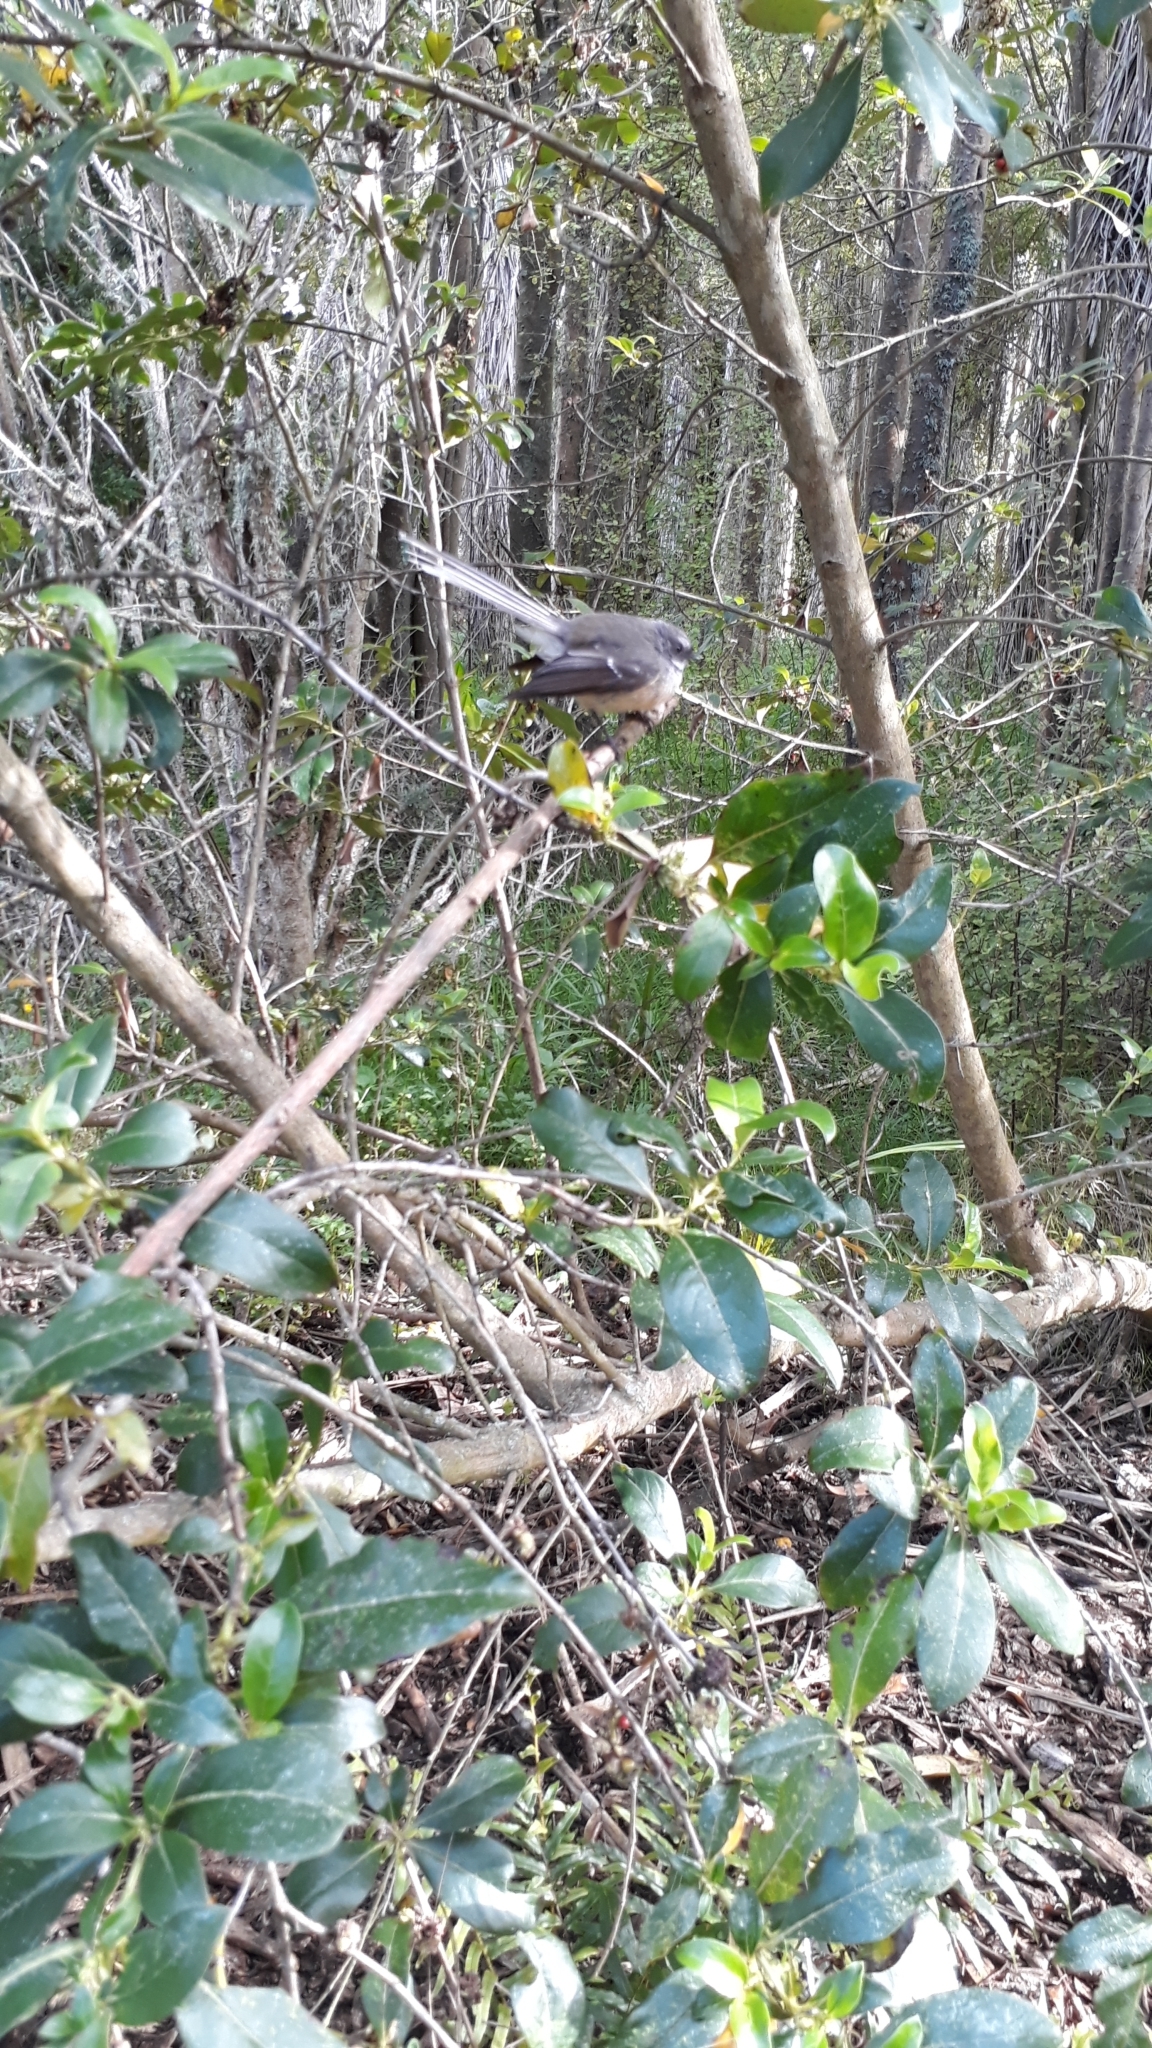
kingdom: Animalia
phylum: Chordata
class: Aves
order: Passeriformes
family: Rhipiduridae
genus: Rhipidura
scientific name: Rhipidura fuliginosa
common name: New zealand fantail
